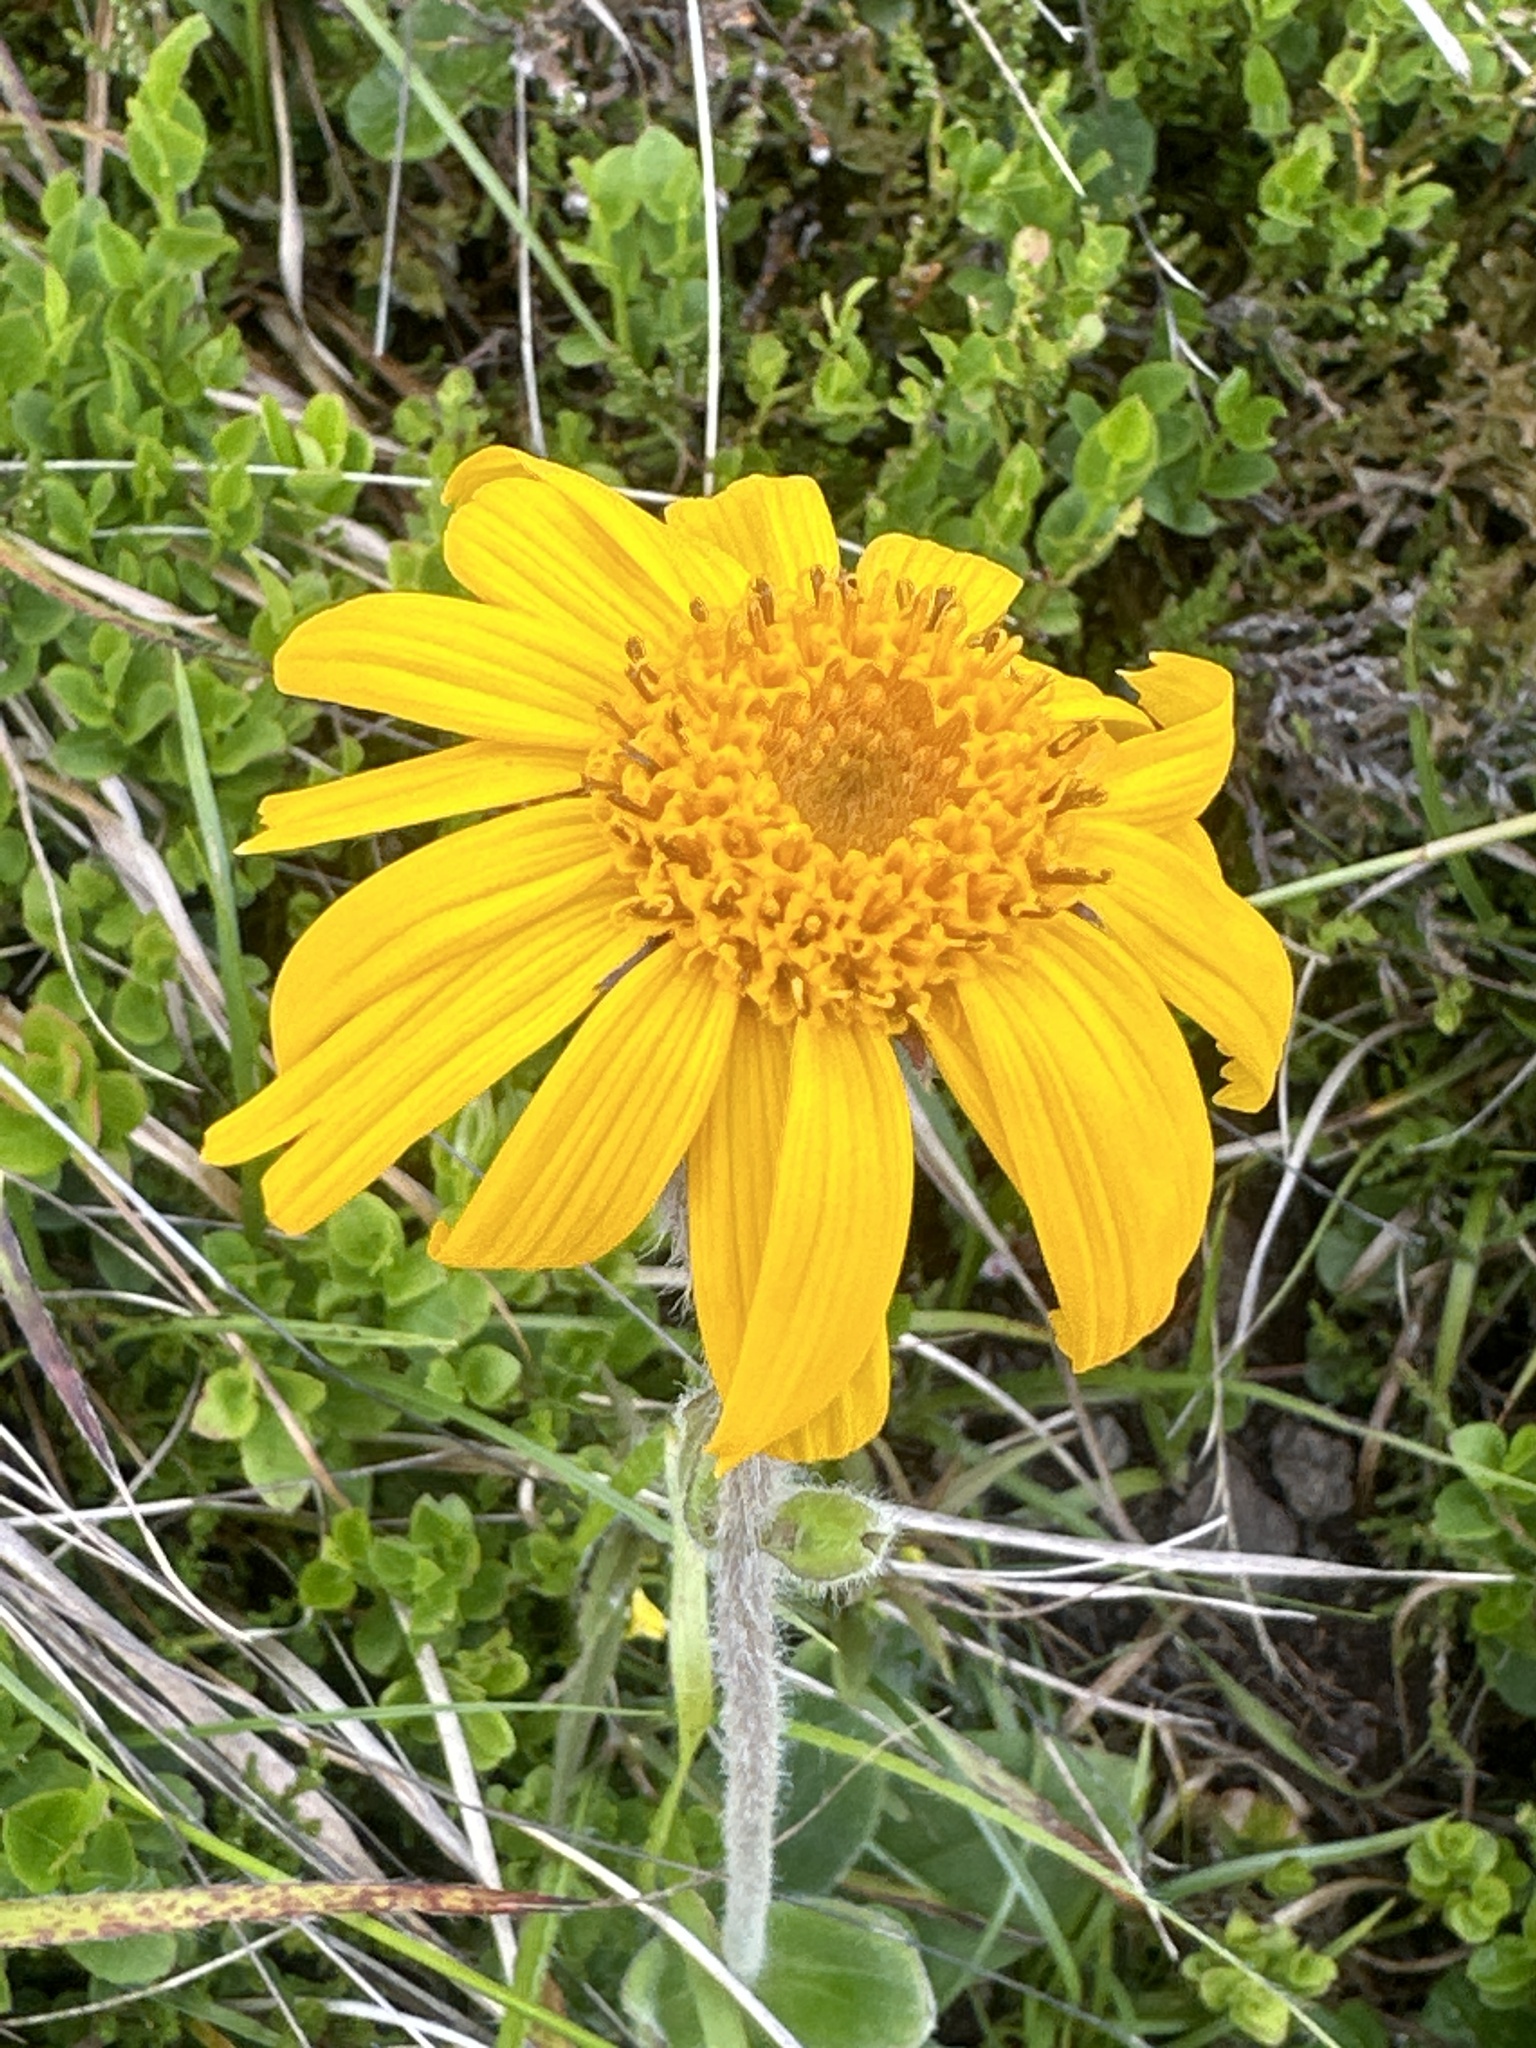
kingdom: Plantae
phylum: Tracheophyta
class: Magnoliopsida
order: Asterales
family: Asteraceae
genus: Arnica
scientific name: Arnica montana
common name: Leopard's bane
